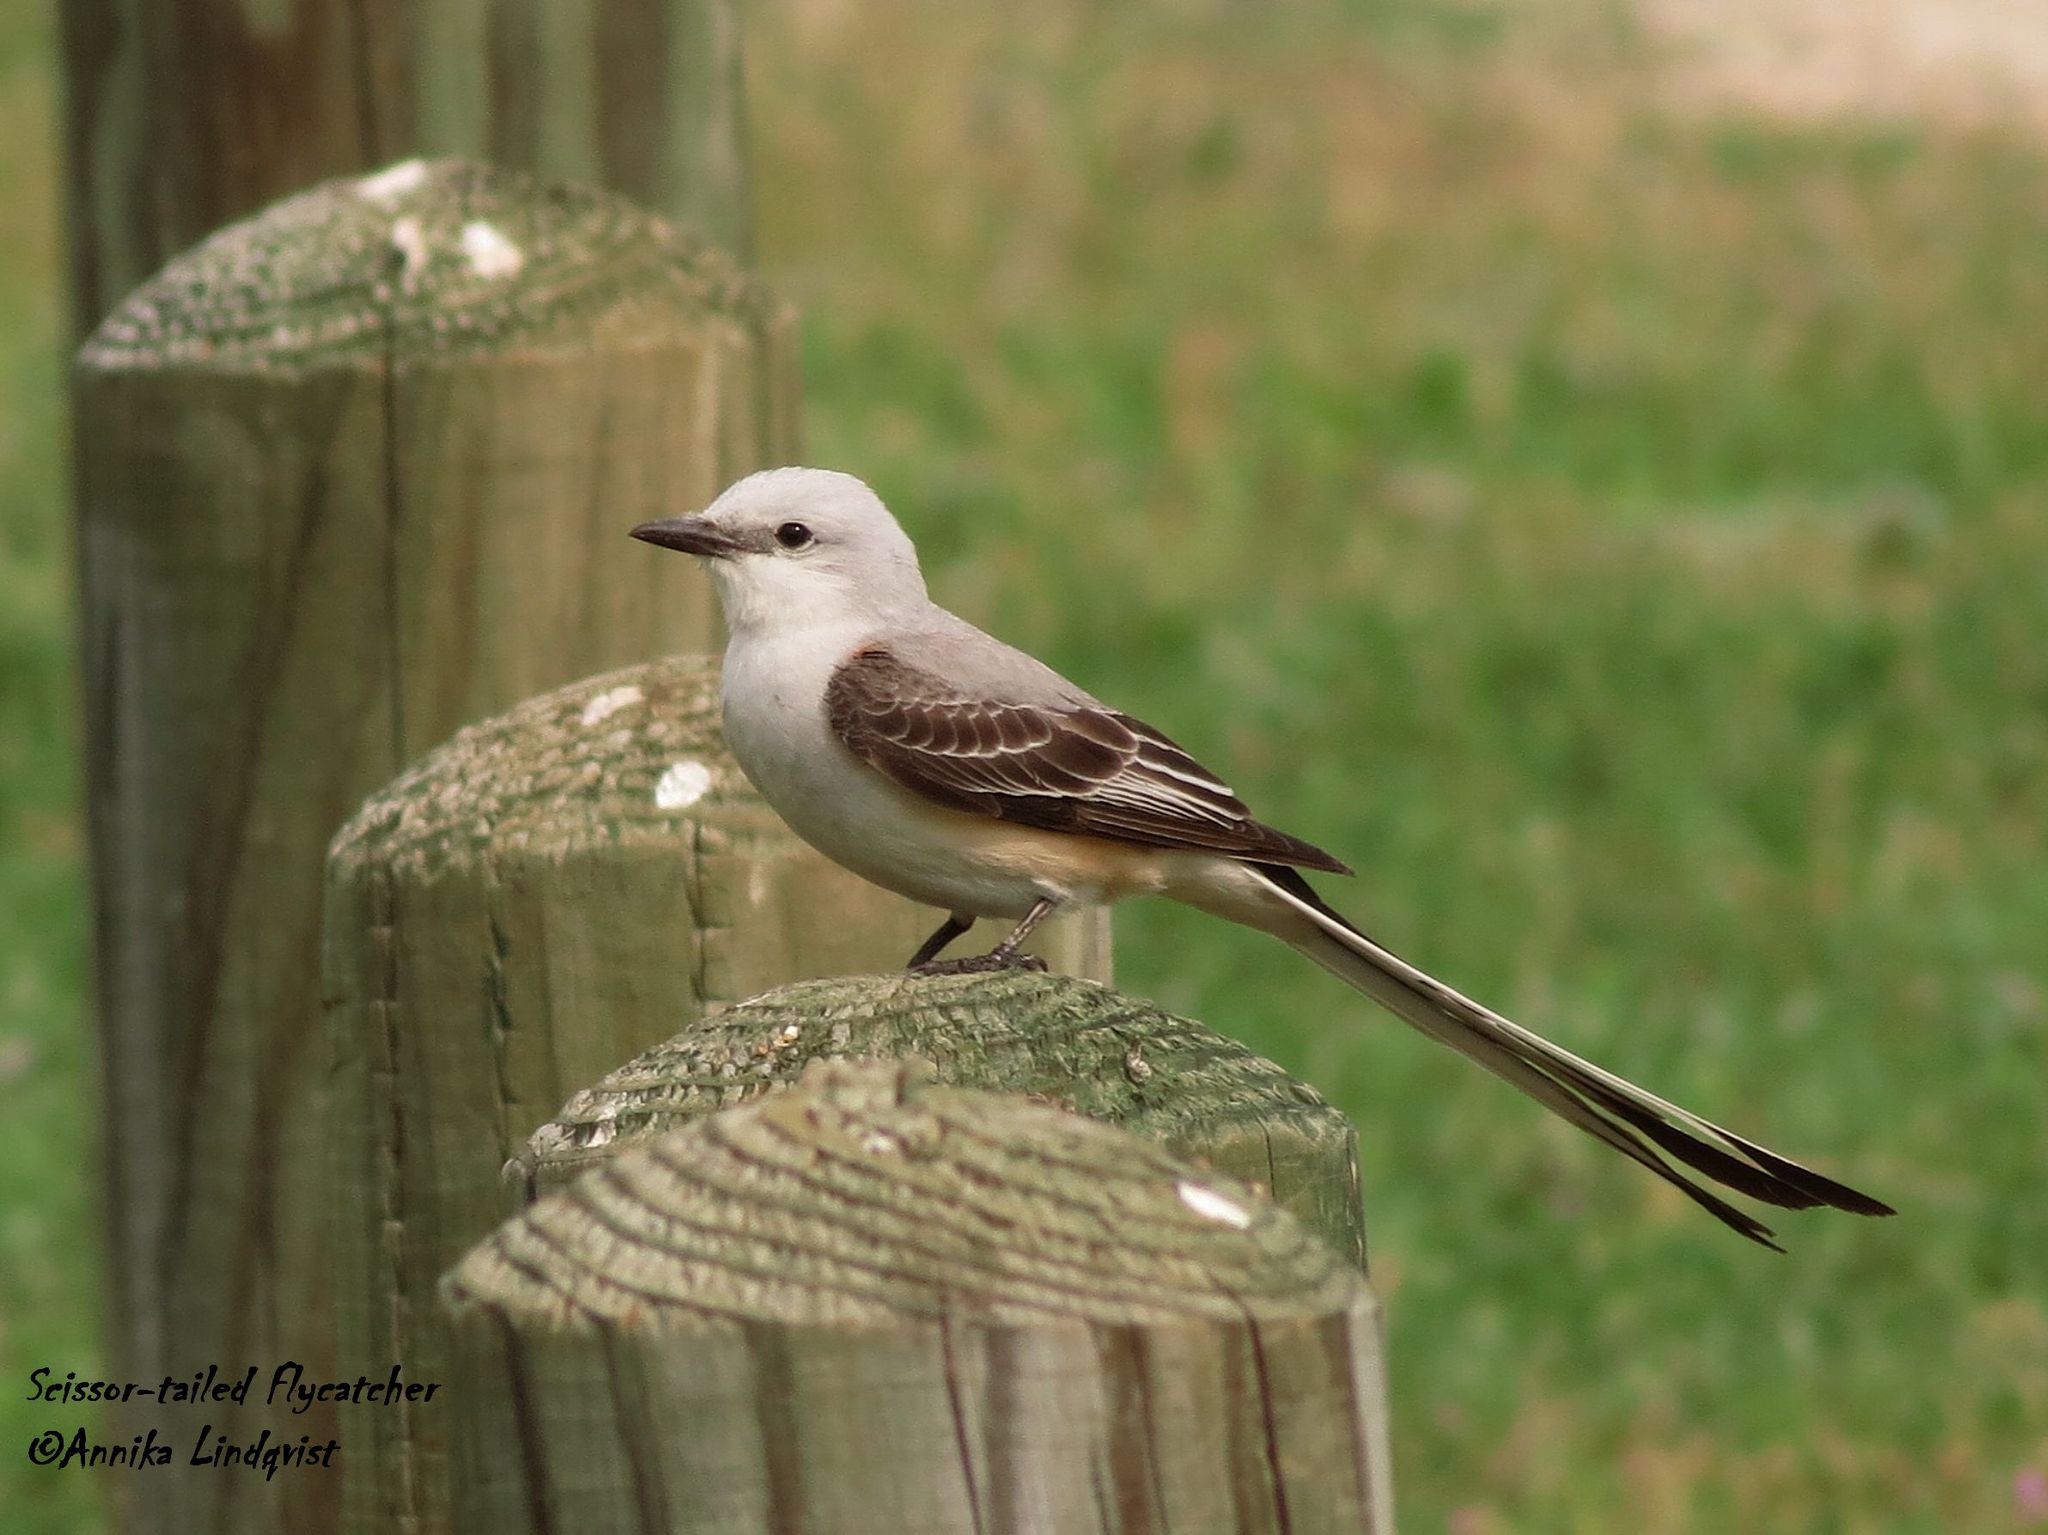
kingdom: Animalia
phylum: Chordata
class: Aves
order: Passeriformes
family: Tyrannidae
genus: Tyrannus
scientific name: Tyrannus forficatus
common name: Scissor-tailed flycatcher
